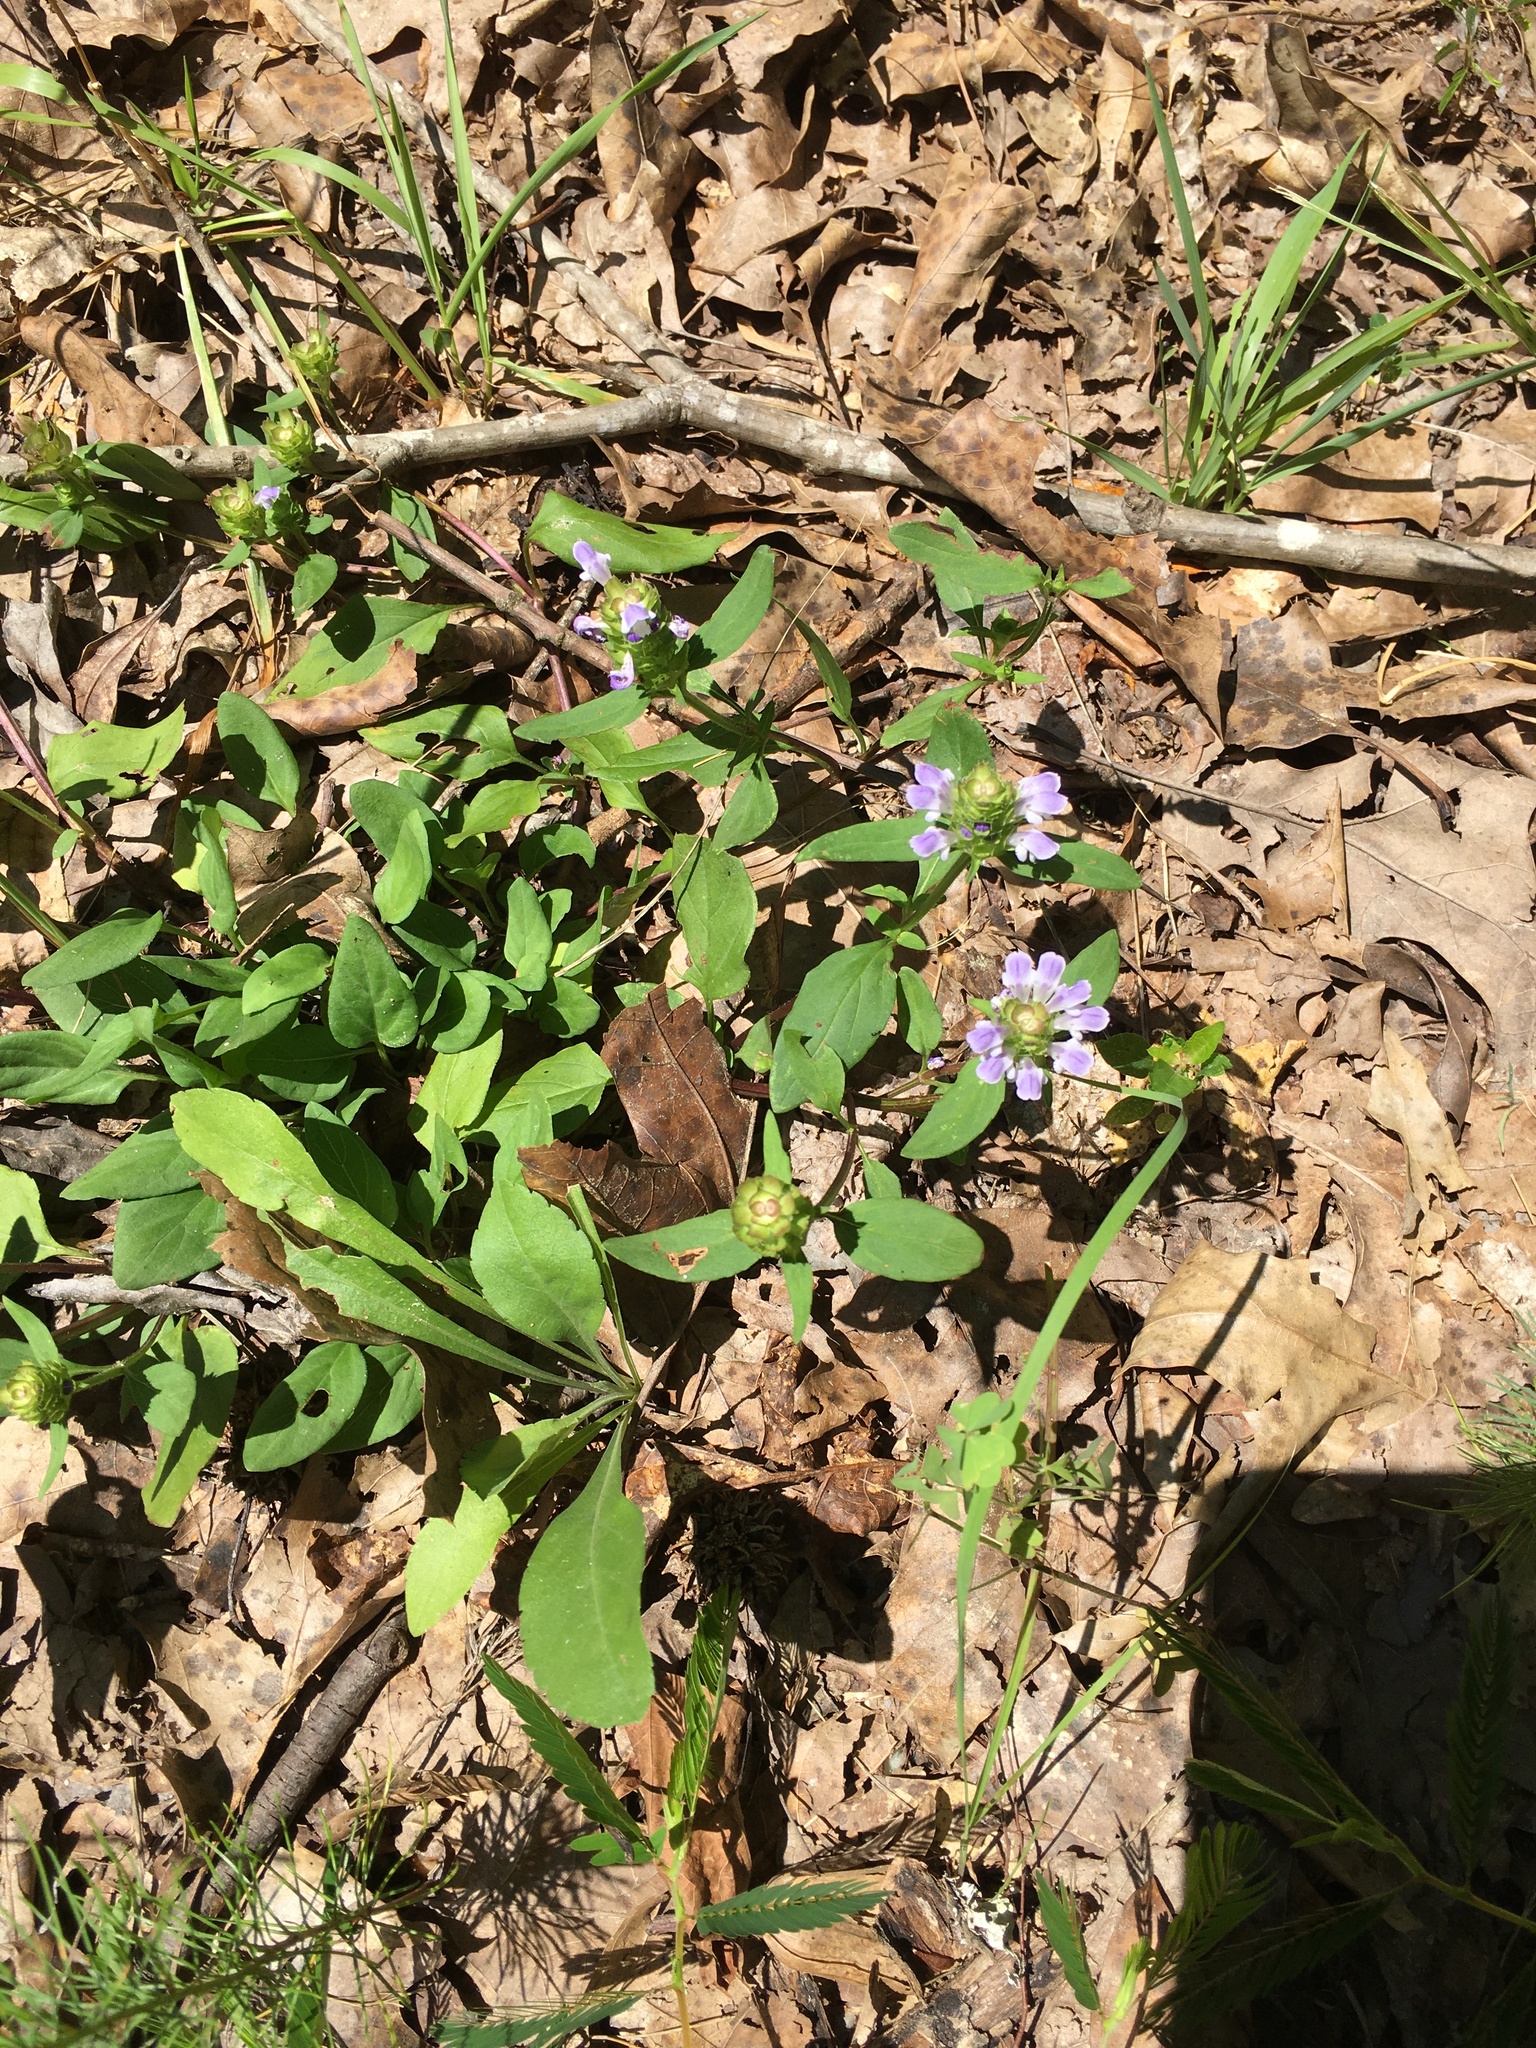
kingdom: Plantae
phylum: Tracheophyta
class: Magnoliopsida
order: Lamiales
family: Lamiaceae
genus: Prunella
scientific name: Prunella vulgaris
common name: Heal-all
